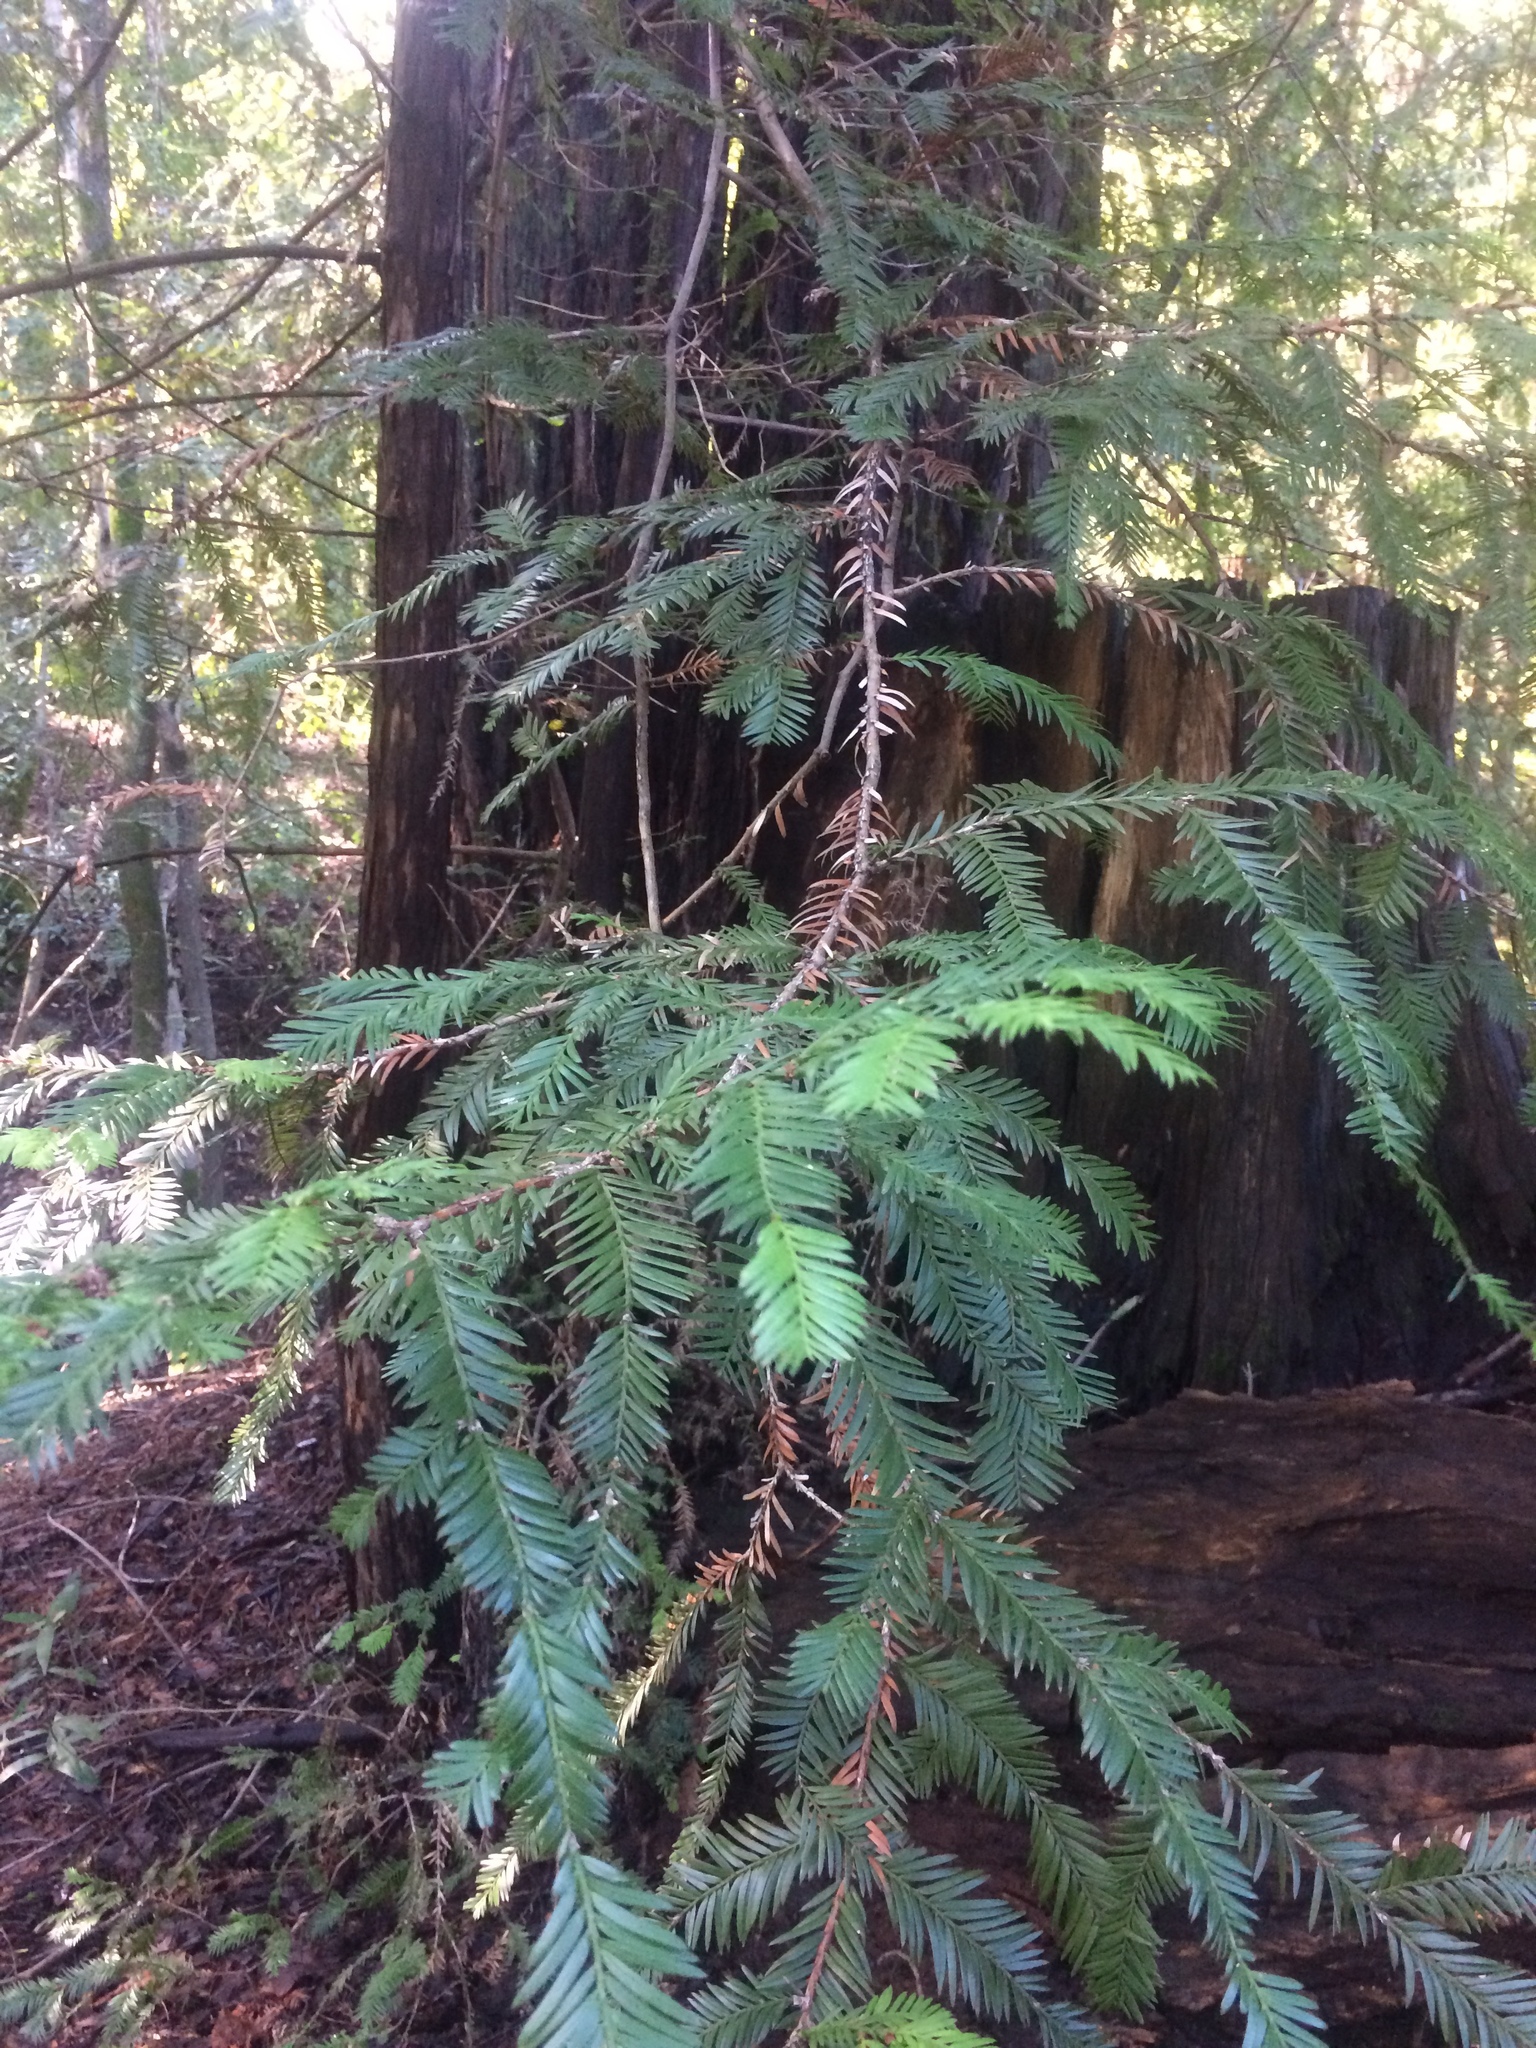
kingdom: Plantae
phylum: Tracheophyta
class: Pinopsida
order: Pinales
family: Cupressaceae
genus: Sequoia
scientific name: Sequoia sempervirens
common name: Coast redwood
